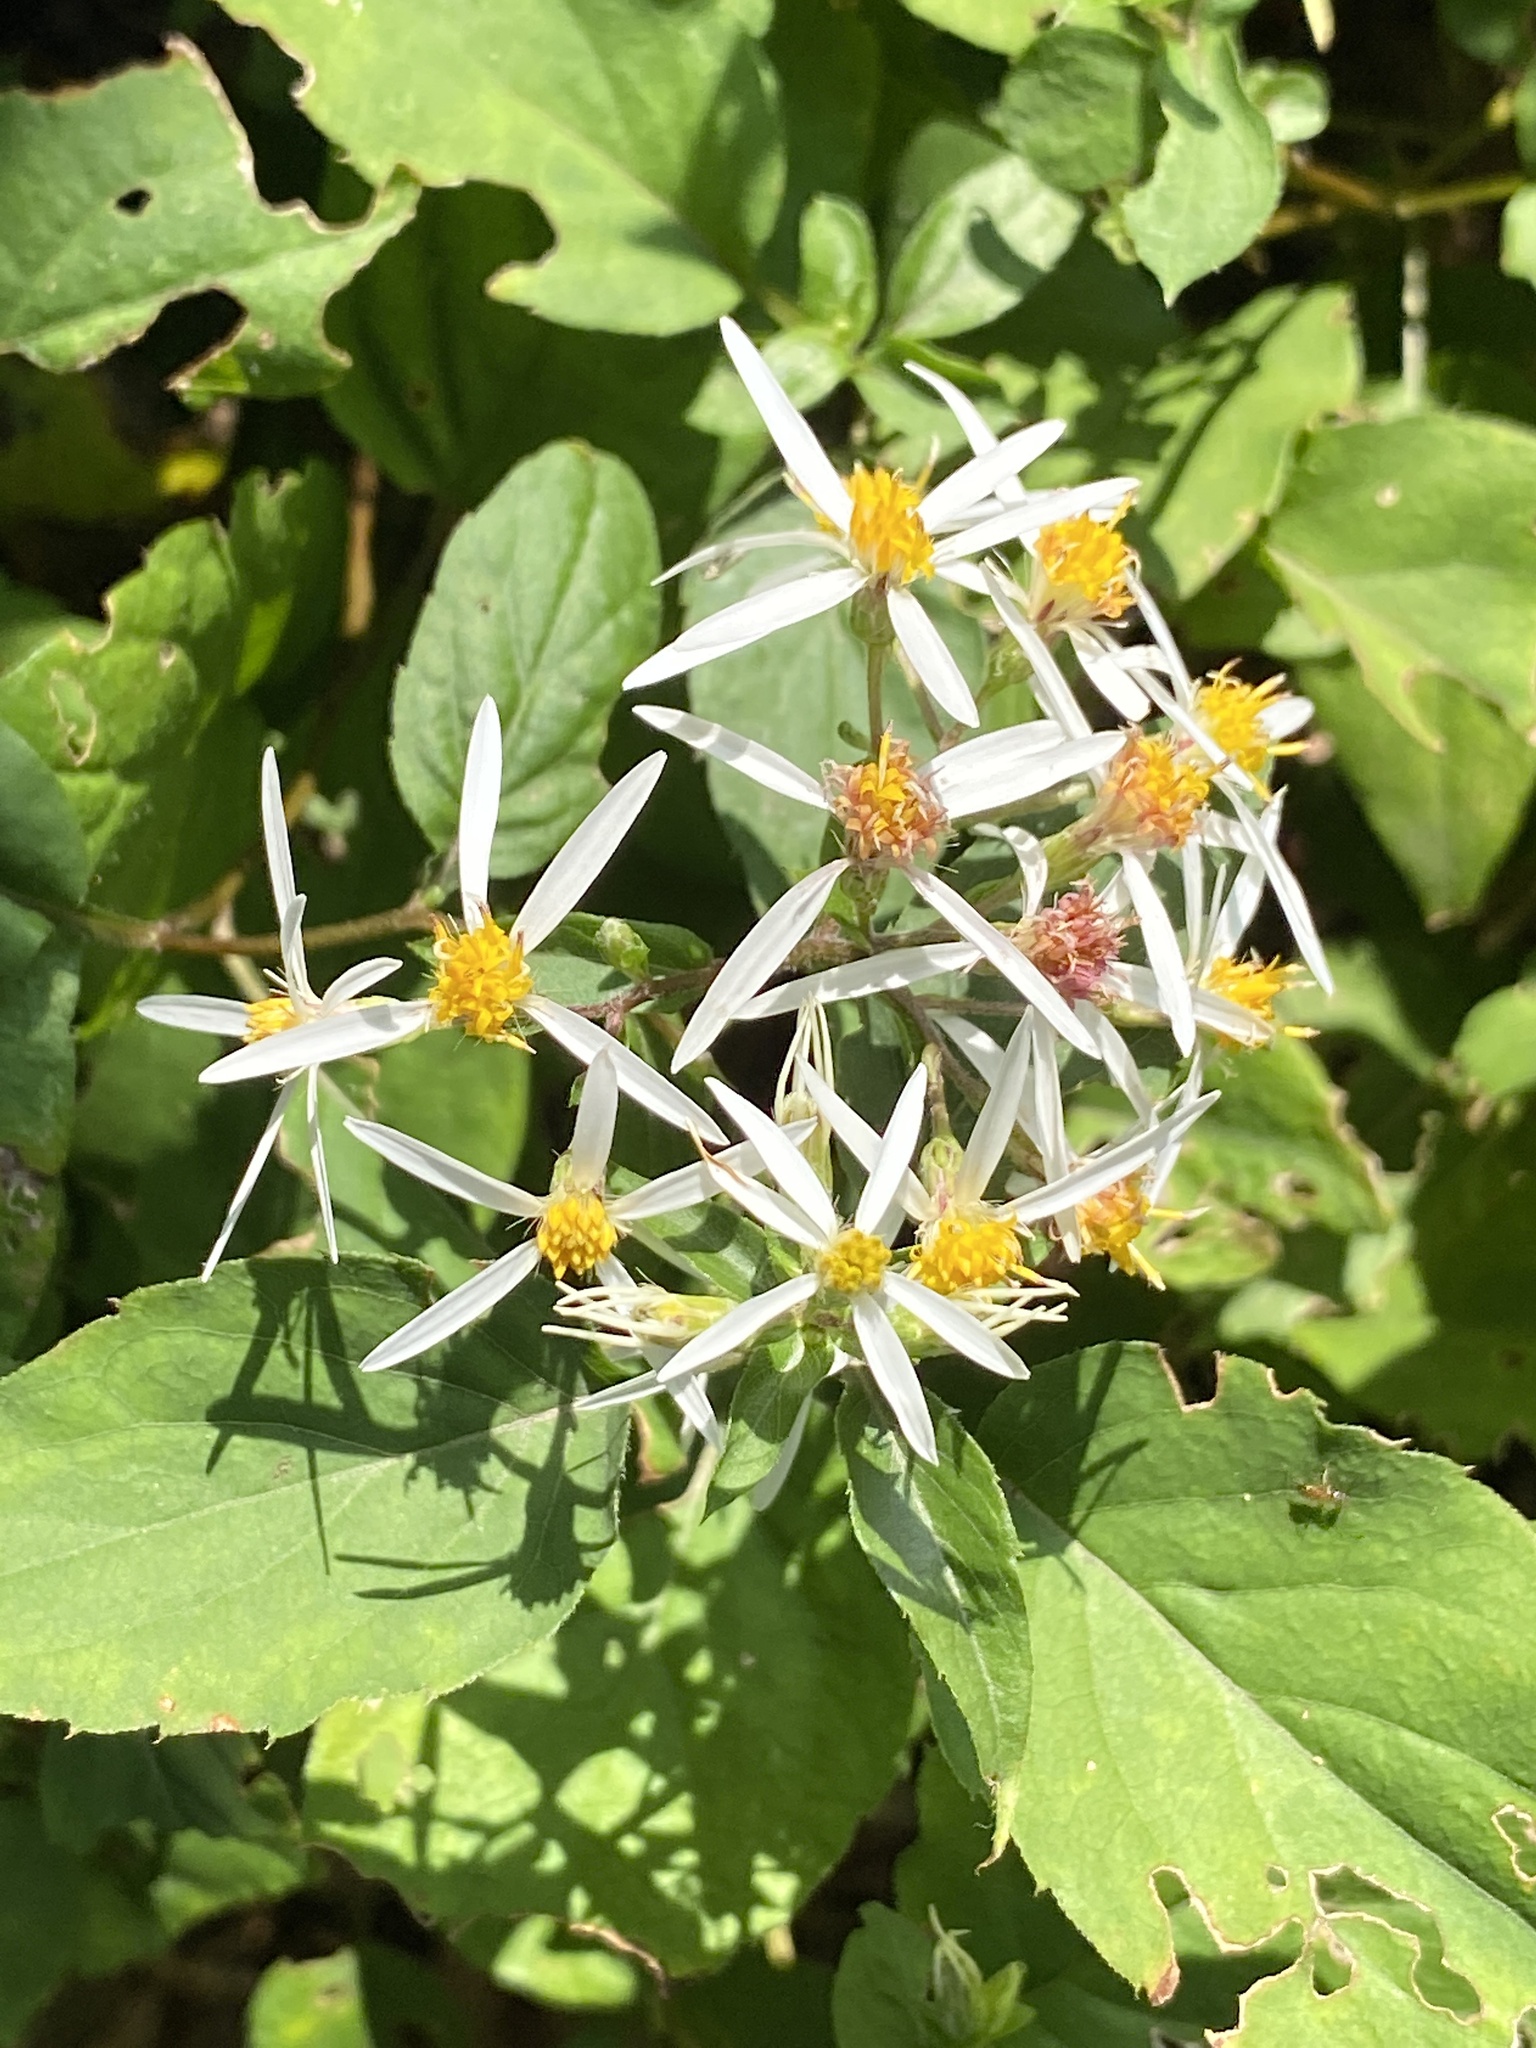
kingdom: Plantae
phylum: Tracheophyta
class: Magnoliopsida
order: Asterales
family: Asteraceae
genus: Eurybia
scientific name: Eurybia divaricata
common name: White wood aster
